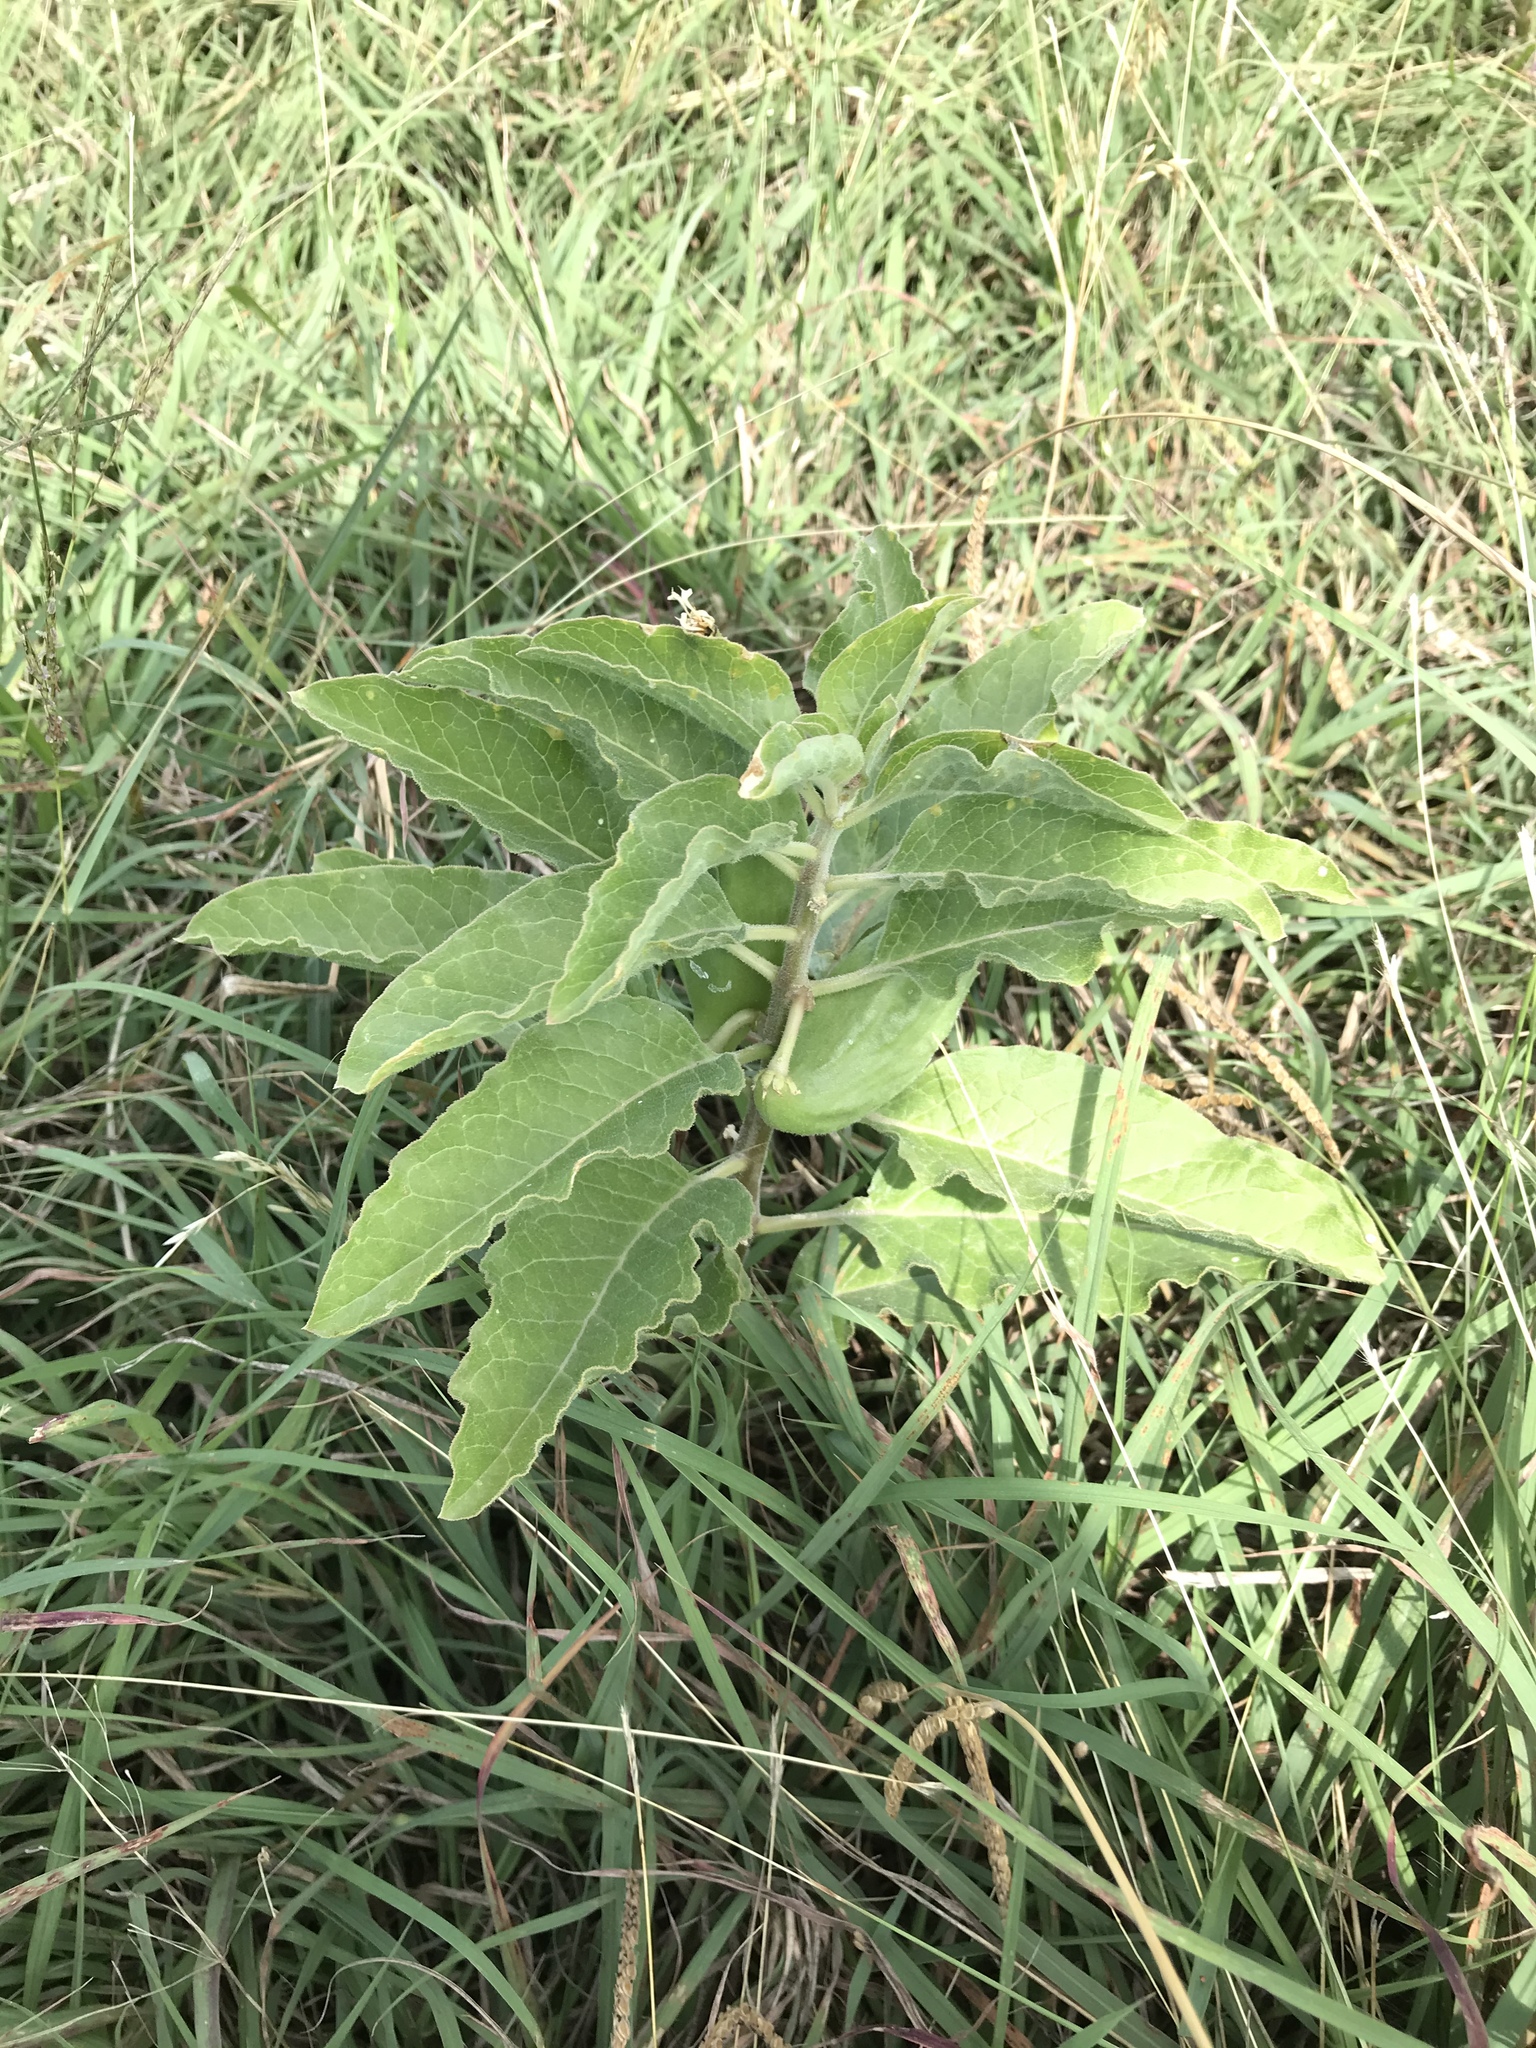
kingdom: Plantae
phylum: Tracheophyta
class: Magnoliopsida
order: Gentianales
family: Apocynaceae
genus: Asclepias
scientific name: Asclepias oenotheroides
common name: Zizotes milkweed
